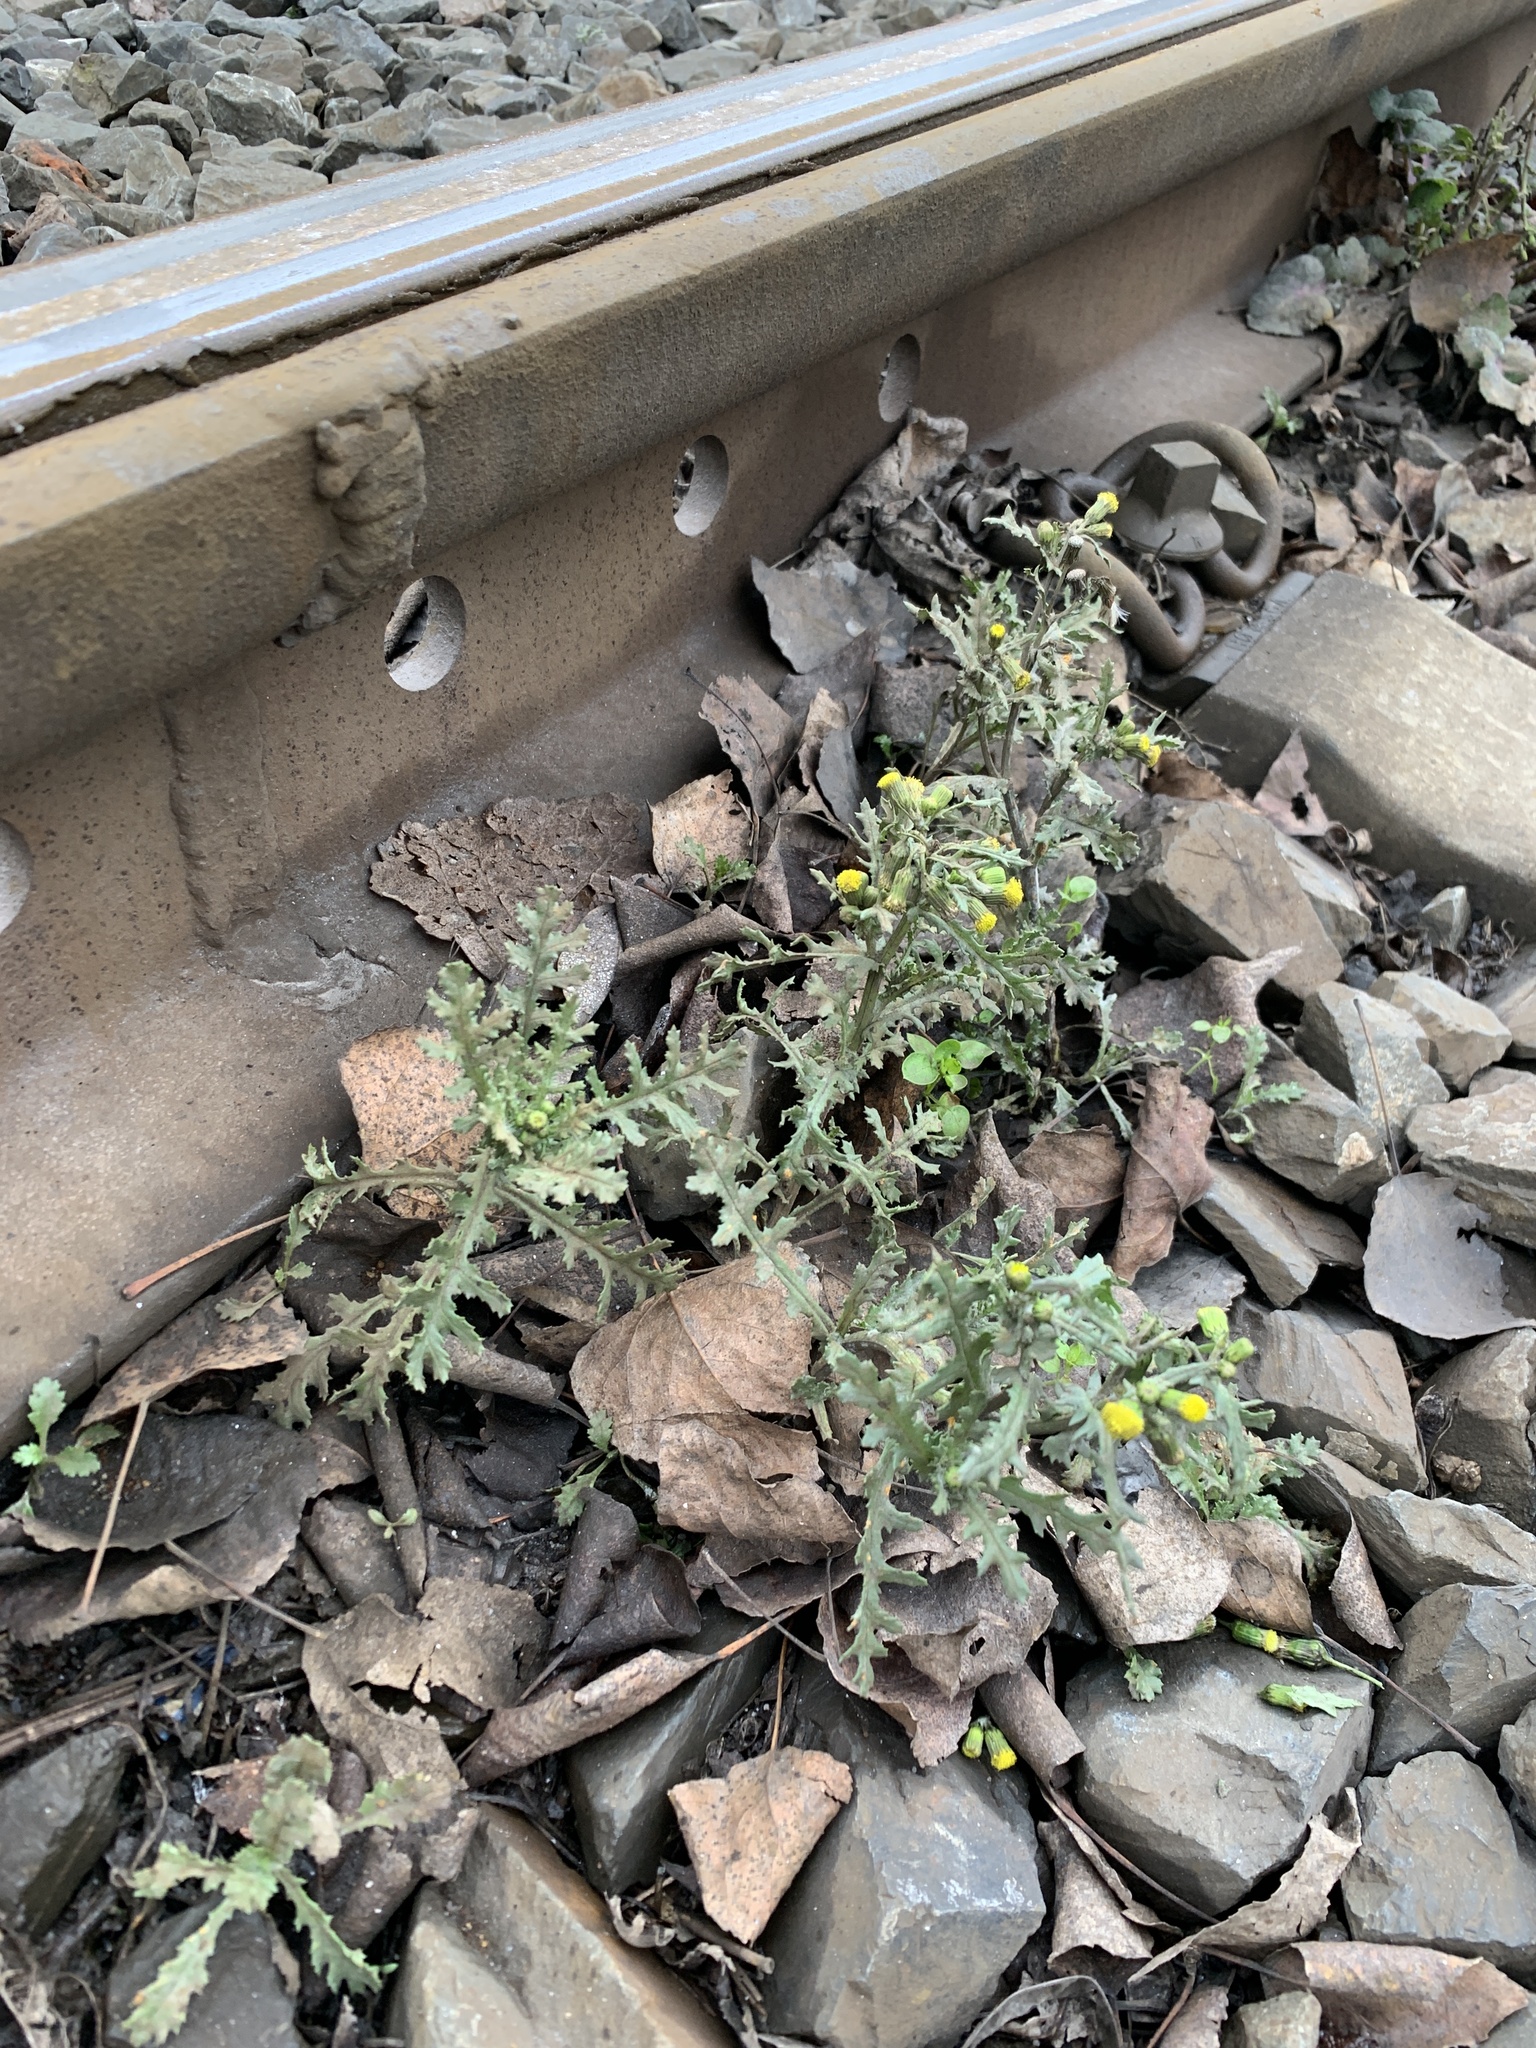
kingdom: Plantae
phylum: Tracheophyta
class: Magnoliopsida
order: Asterales
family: Asteraceae
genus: Senecio
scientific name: Senecio vulgaris
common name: Old-man-in-the-spring
